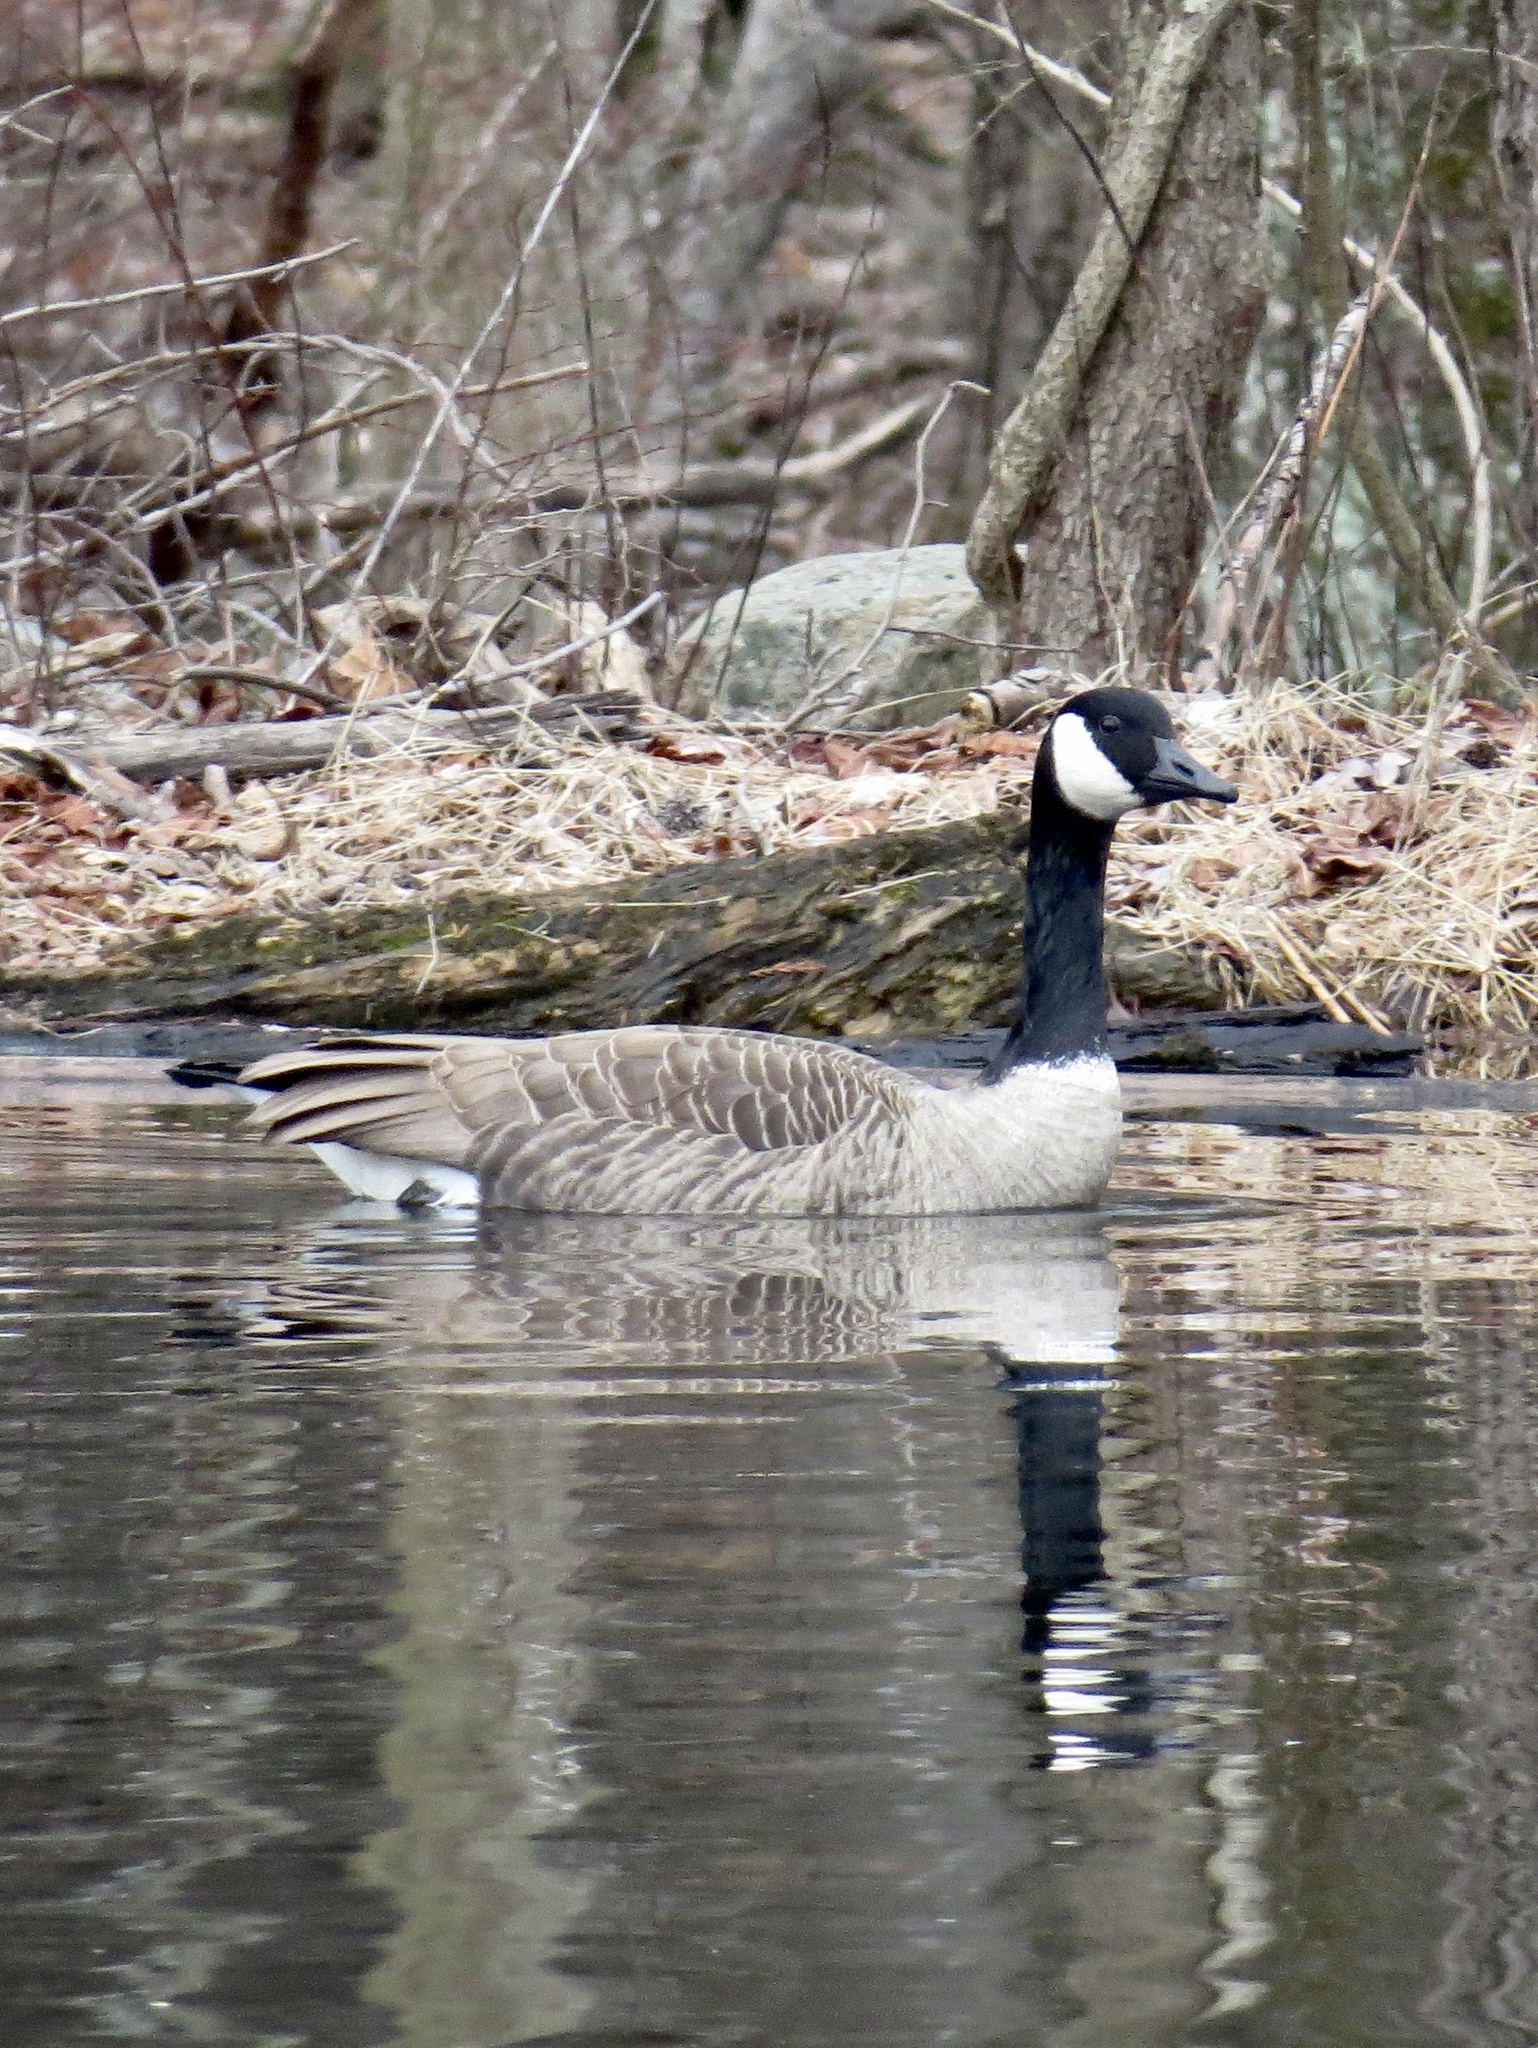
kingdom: Animalia
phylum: Chordata
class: Aves
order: Anseriformes
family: Anatidae
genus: Branta
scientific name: Branta canadensis
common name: Canada goose
